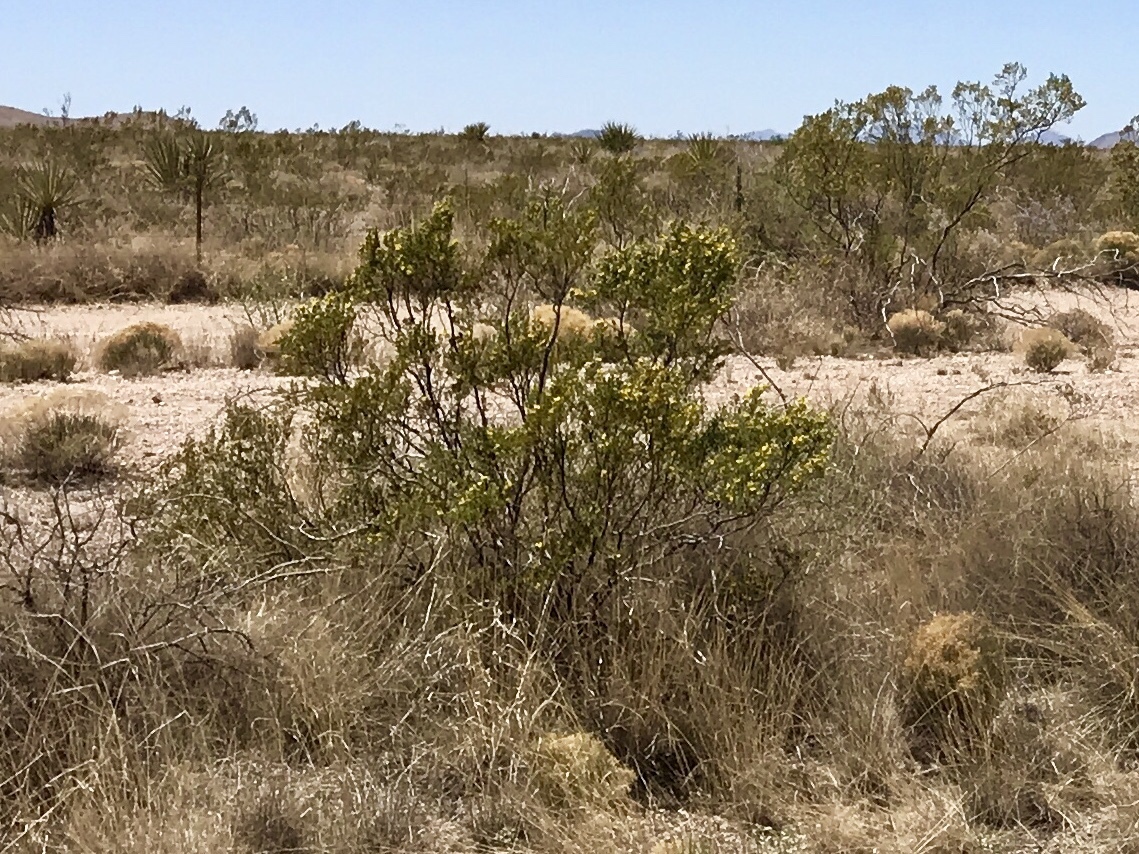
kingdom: Plantae
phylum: Tracheophyta
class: Magnoliopsida
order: Zygophyllales
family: Zygophyllaceae
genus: Larrea
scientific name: Larrea tridentata
